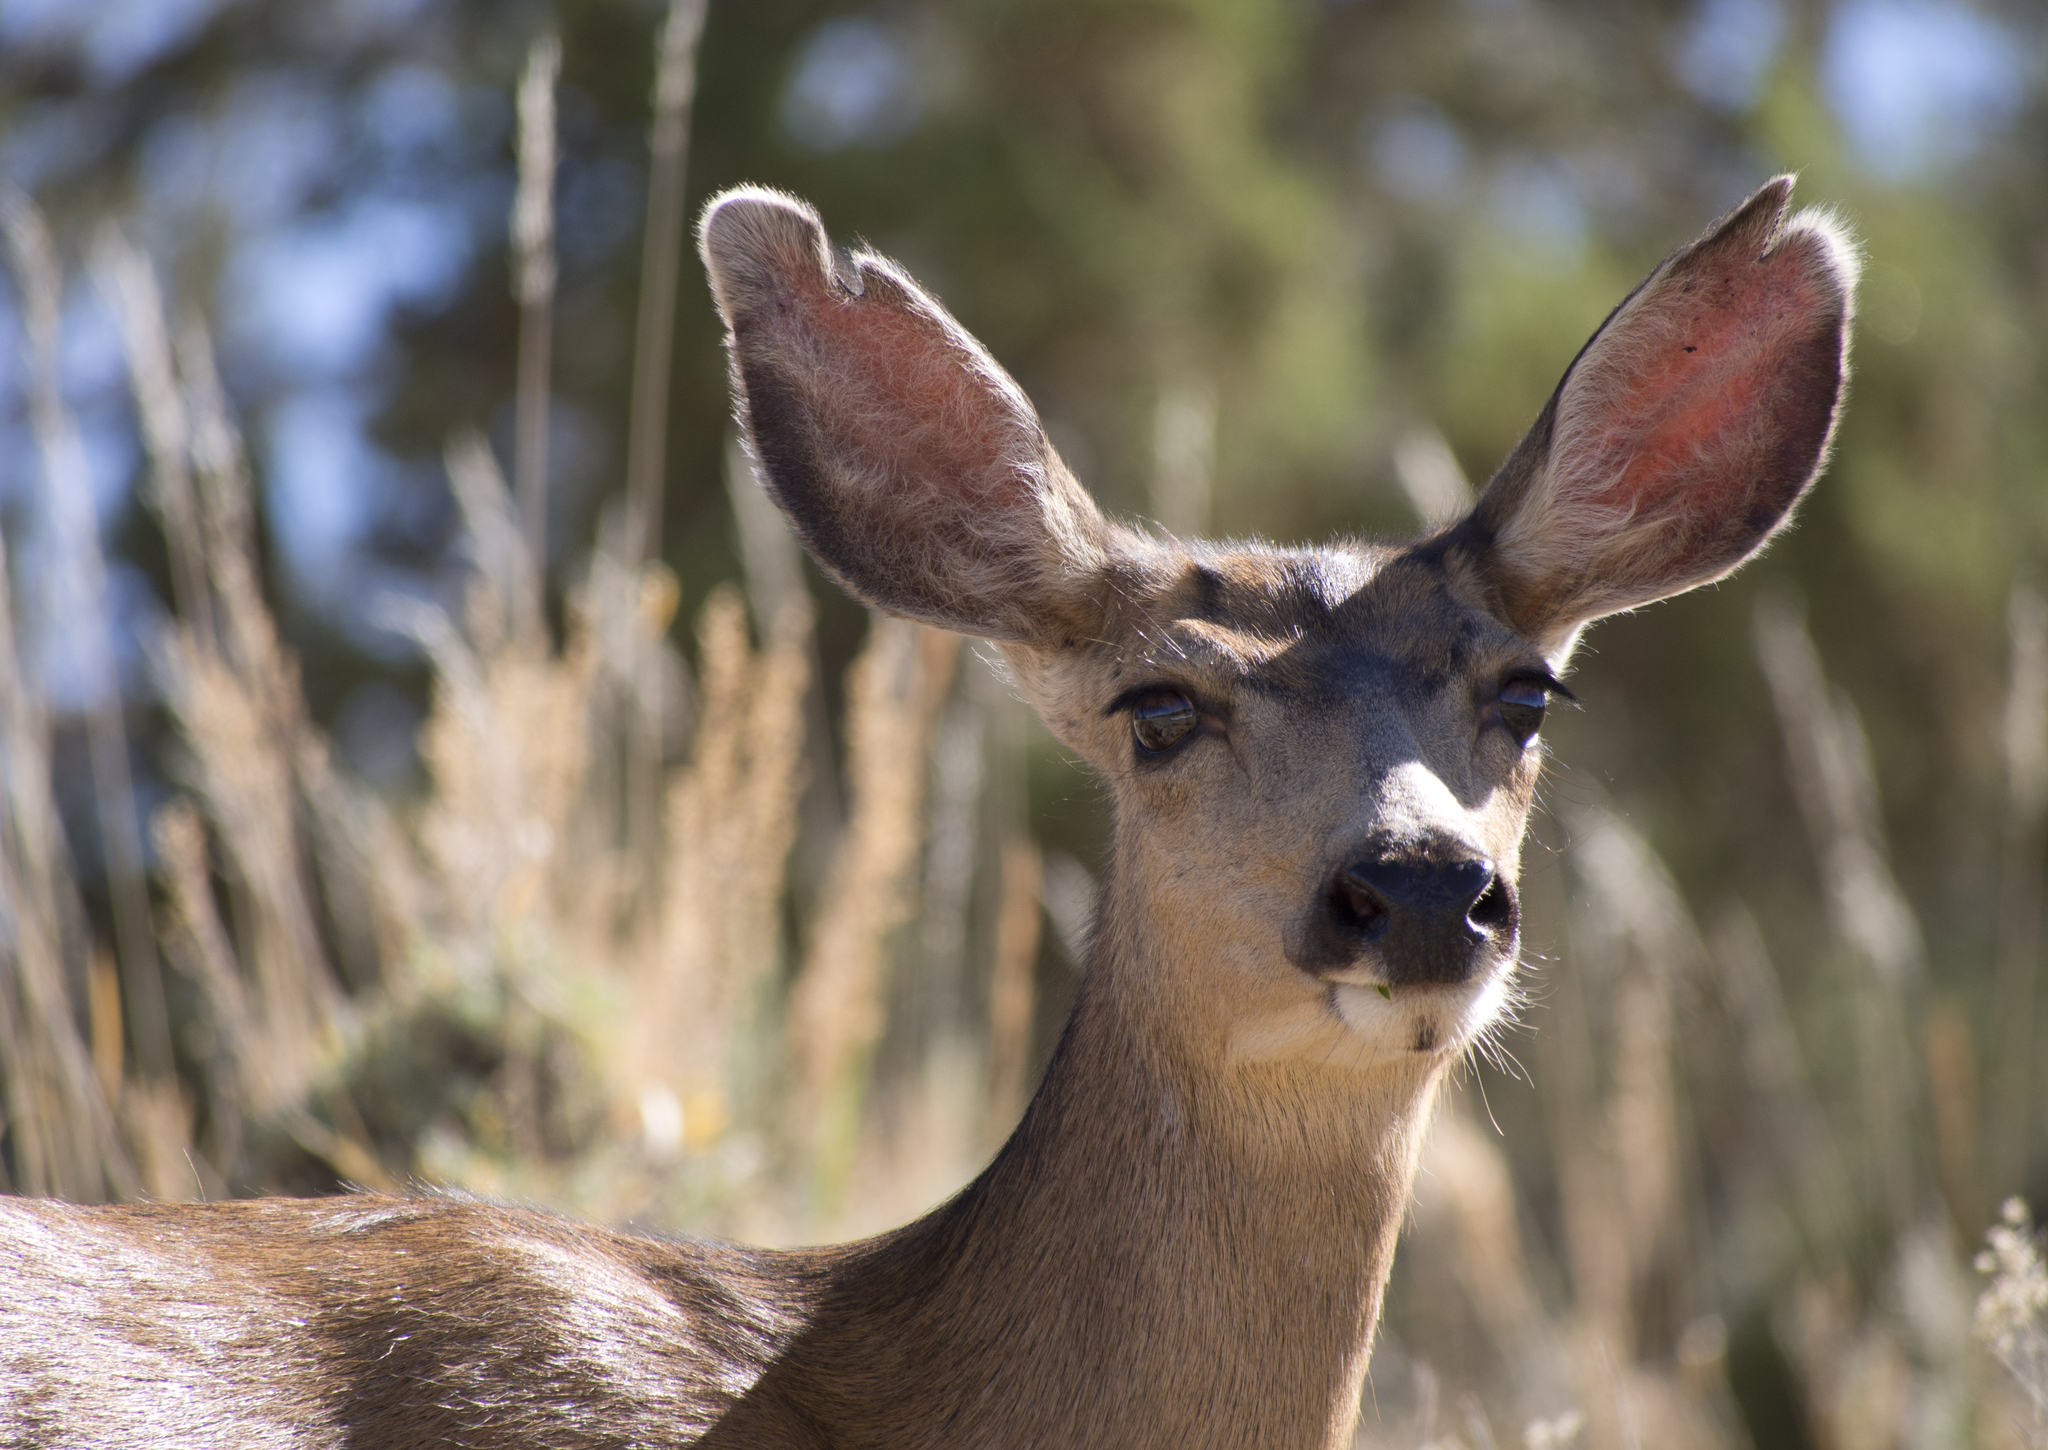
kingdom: Animalia
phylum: Chordata
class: Mammalia
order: Artiodactyla
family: Cervidae
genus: Odocoileus
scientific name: Odocoileus hemionus
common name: Mule deer
